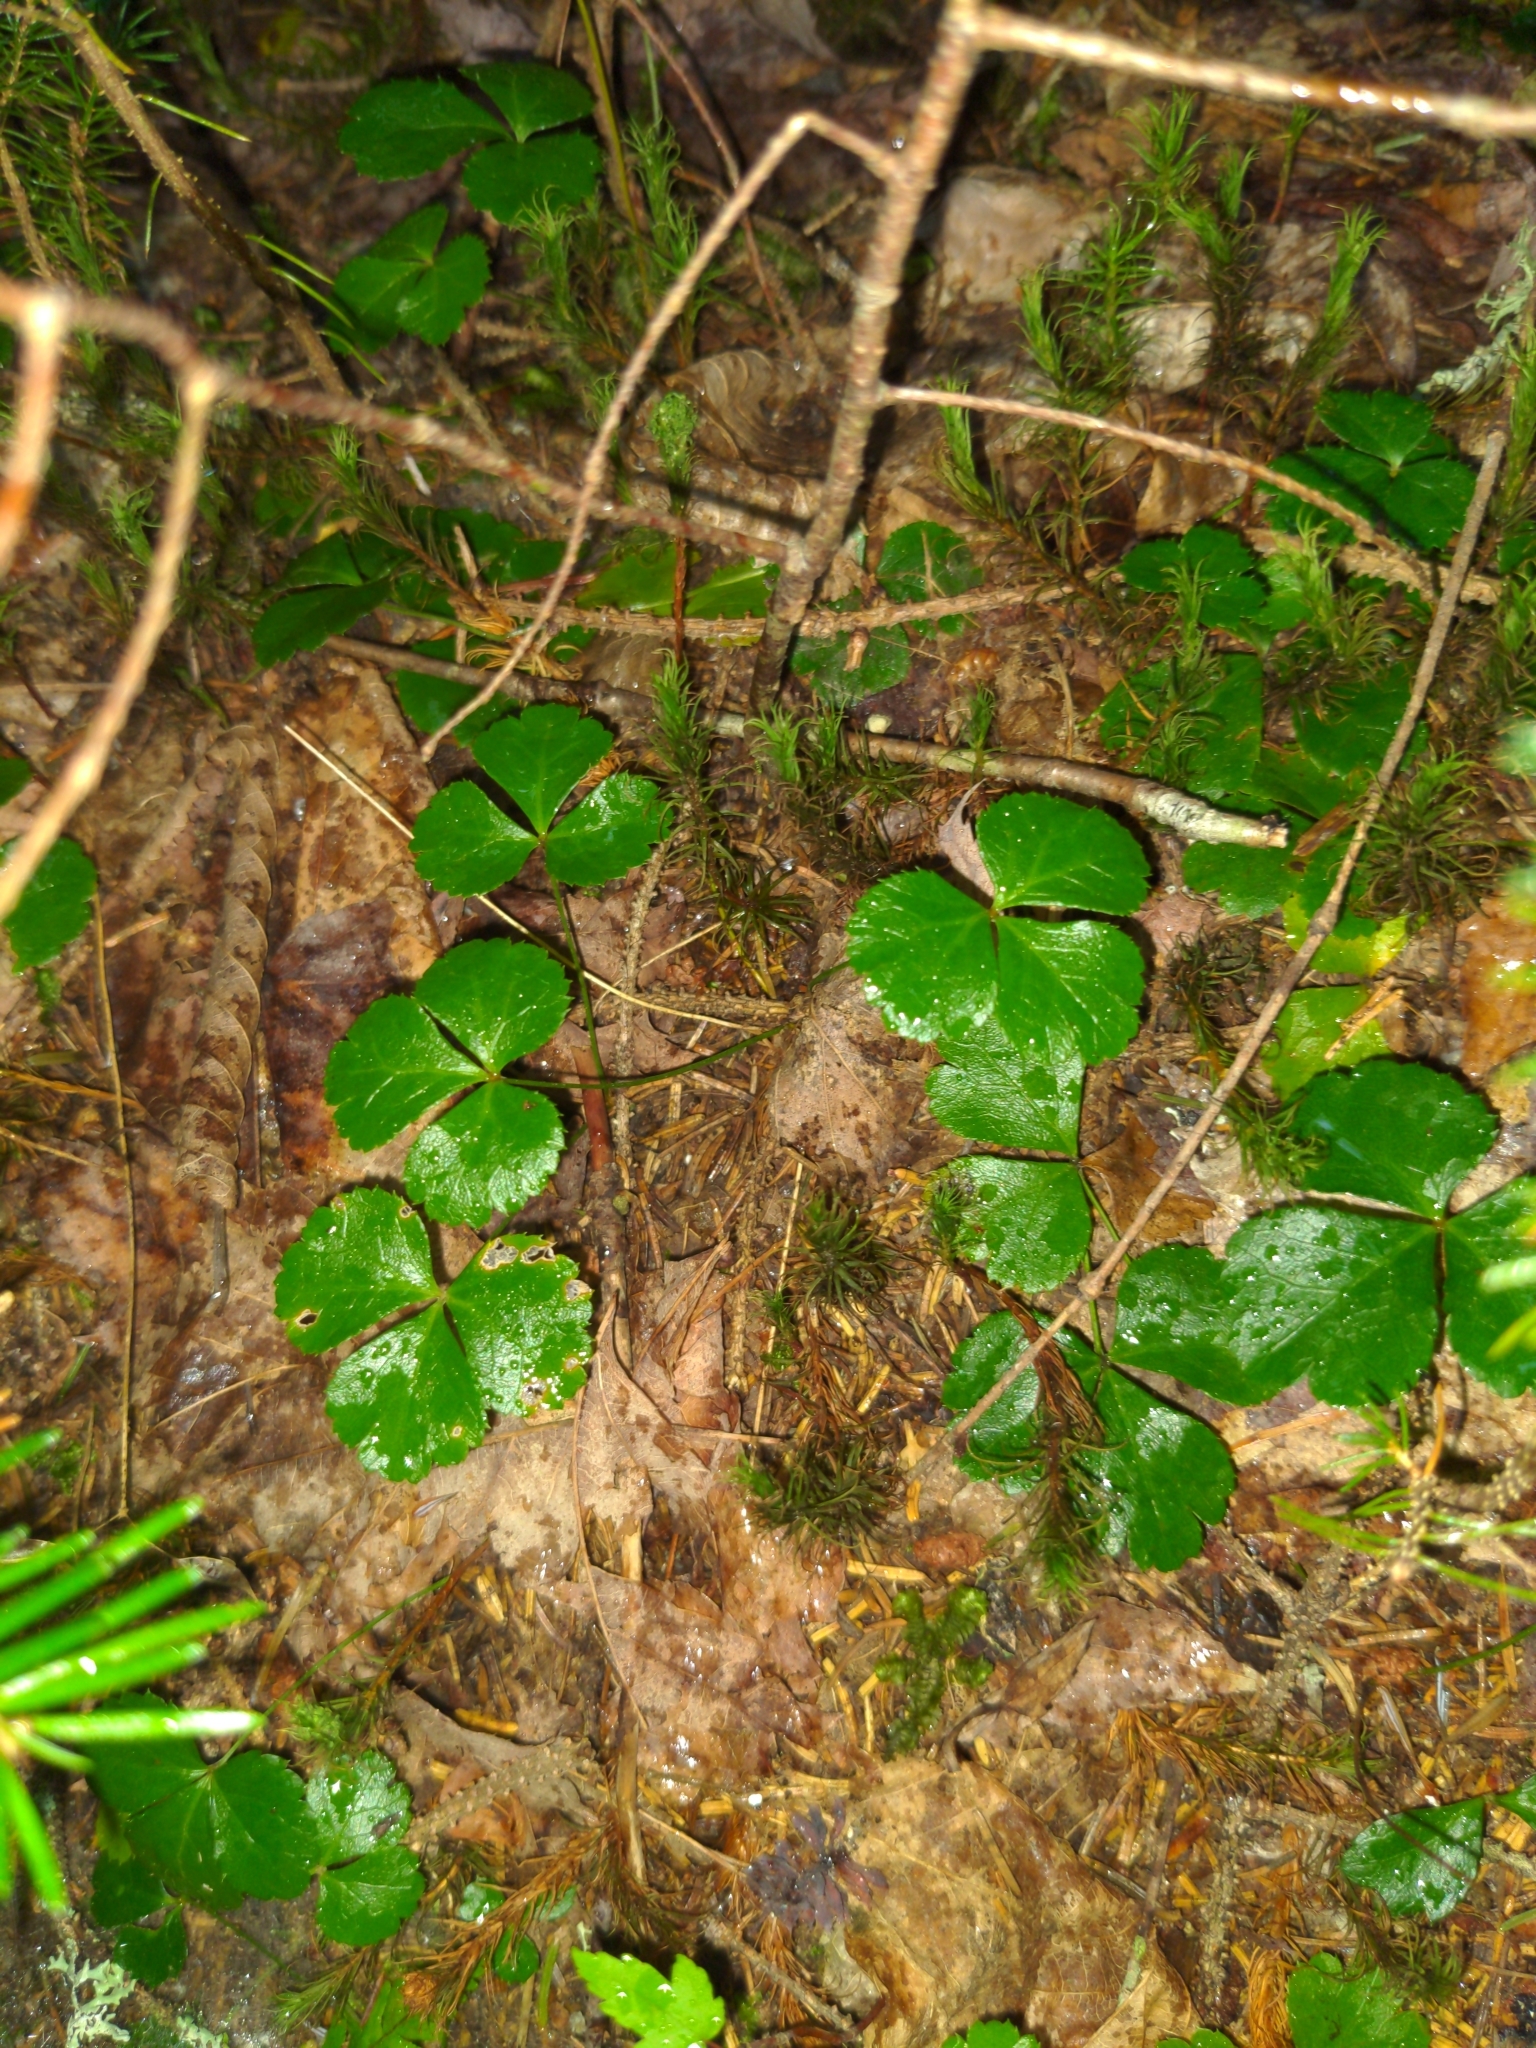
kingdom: Plantae
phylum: Tracheophyta
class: Magnoliopsida
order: Ranunculales
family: Ranunculaceae
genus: Coptis
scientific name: Coptis trifolia
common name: Canker-root
